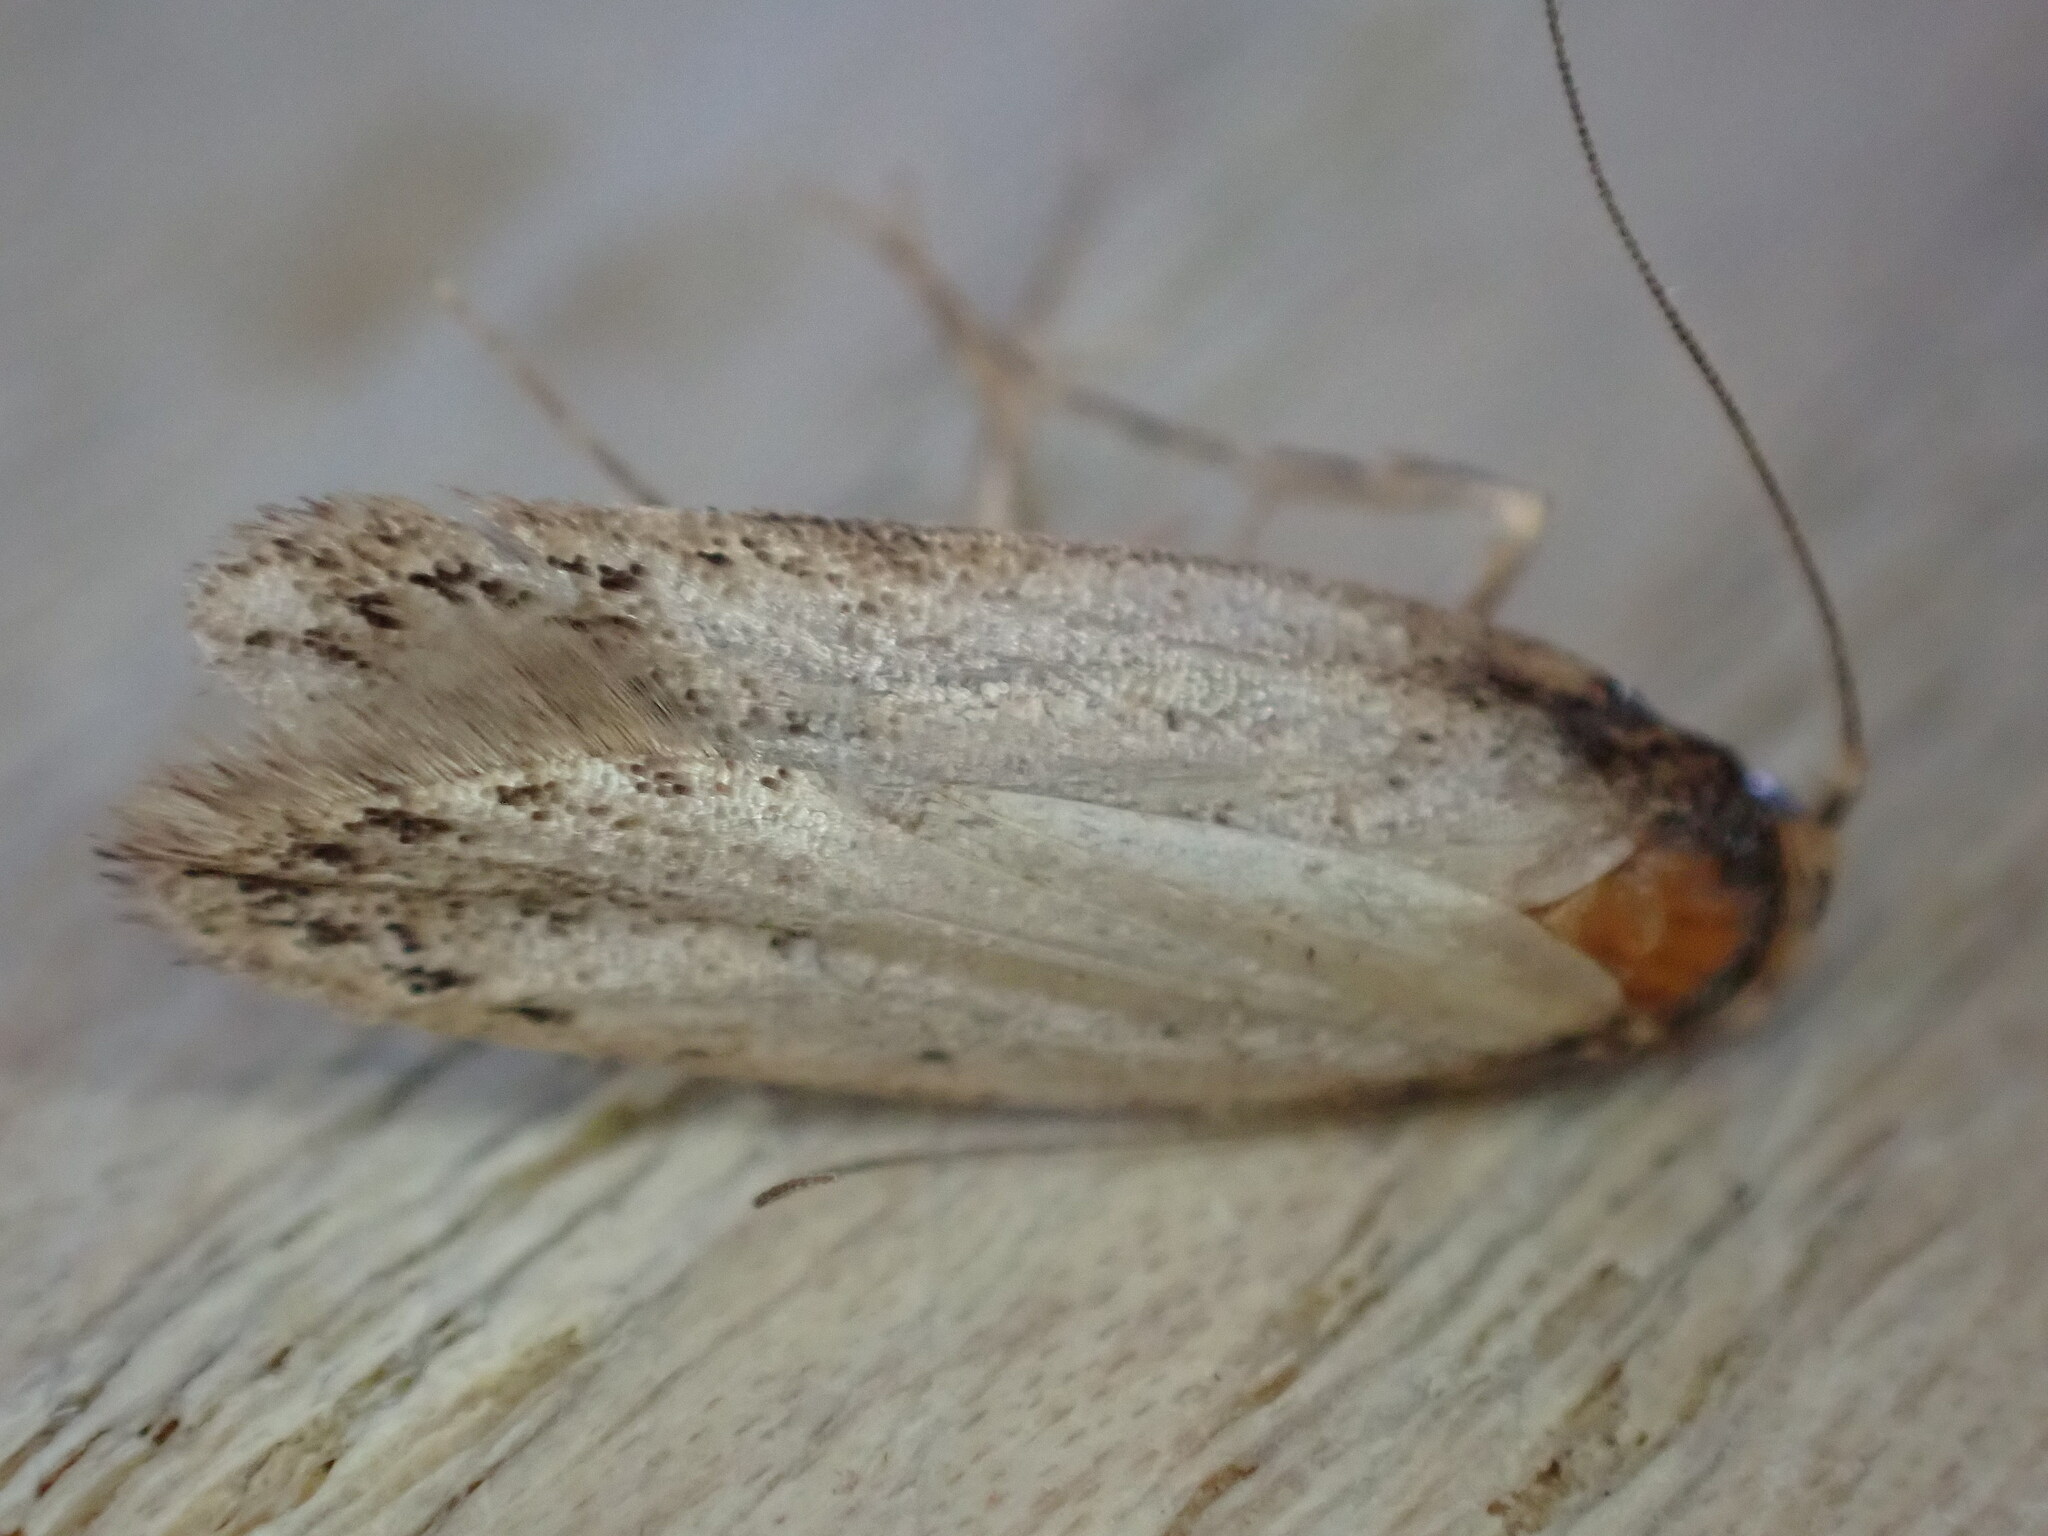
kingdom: Animalia
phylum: Arthropoda
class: Insecta
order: Lepidoptera
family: Oecophoridae
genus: Hofmannophila
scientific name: Hofmannophila pseudospretella
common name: Brown house moth
